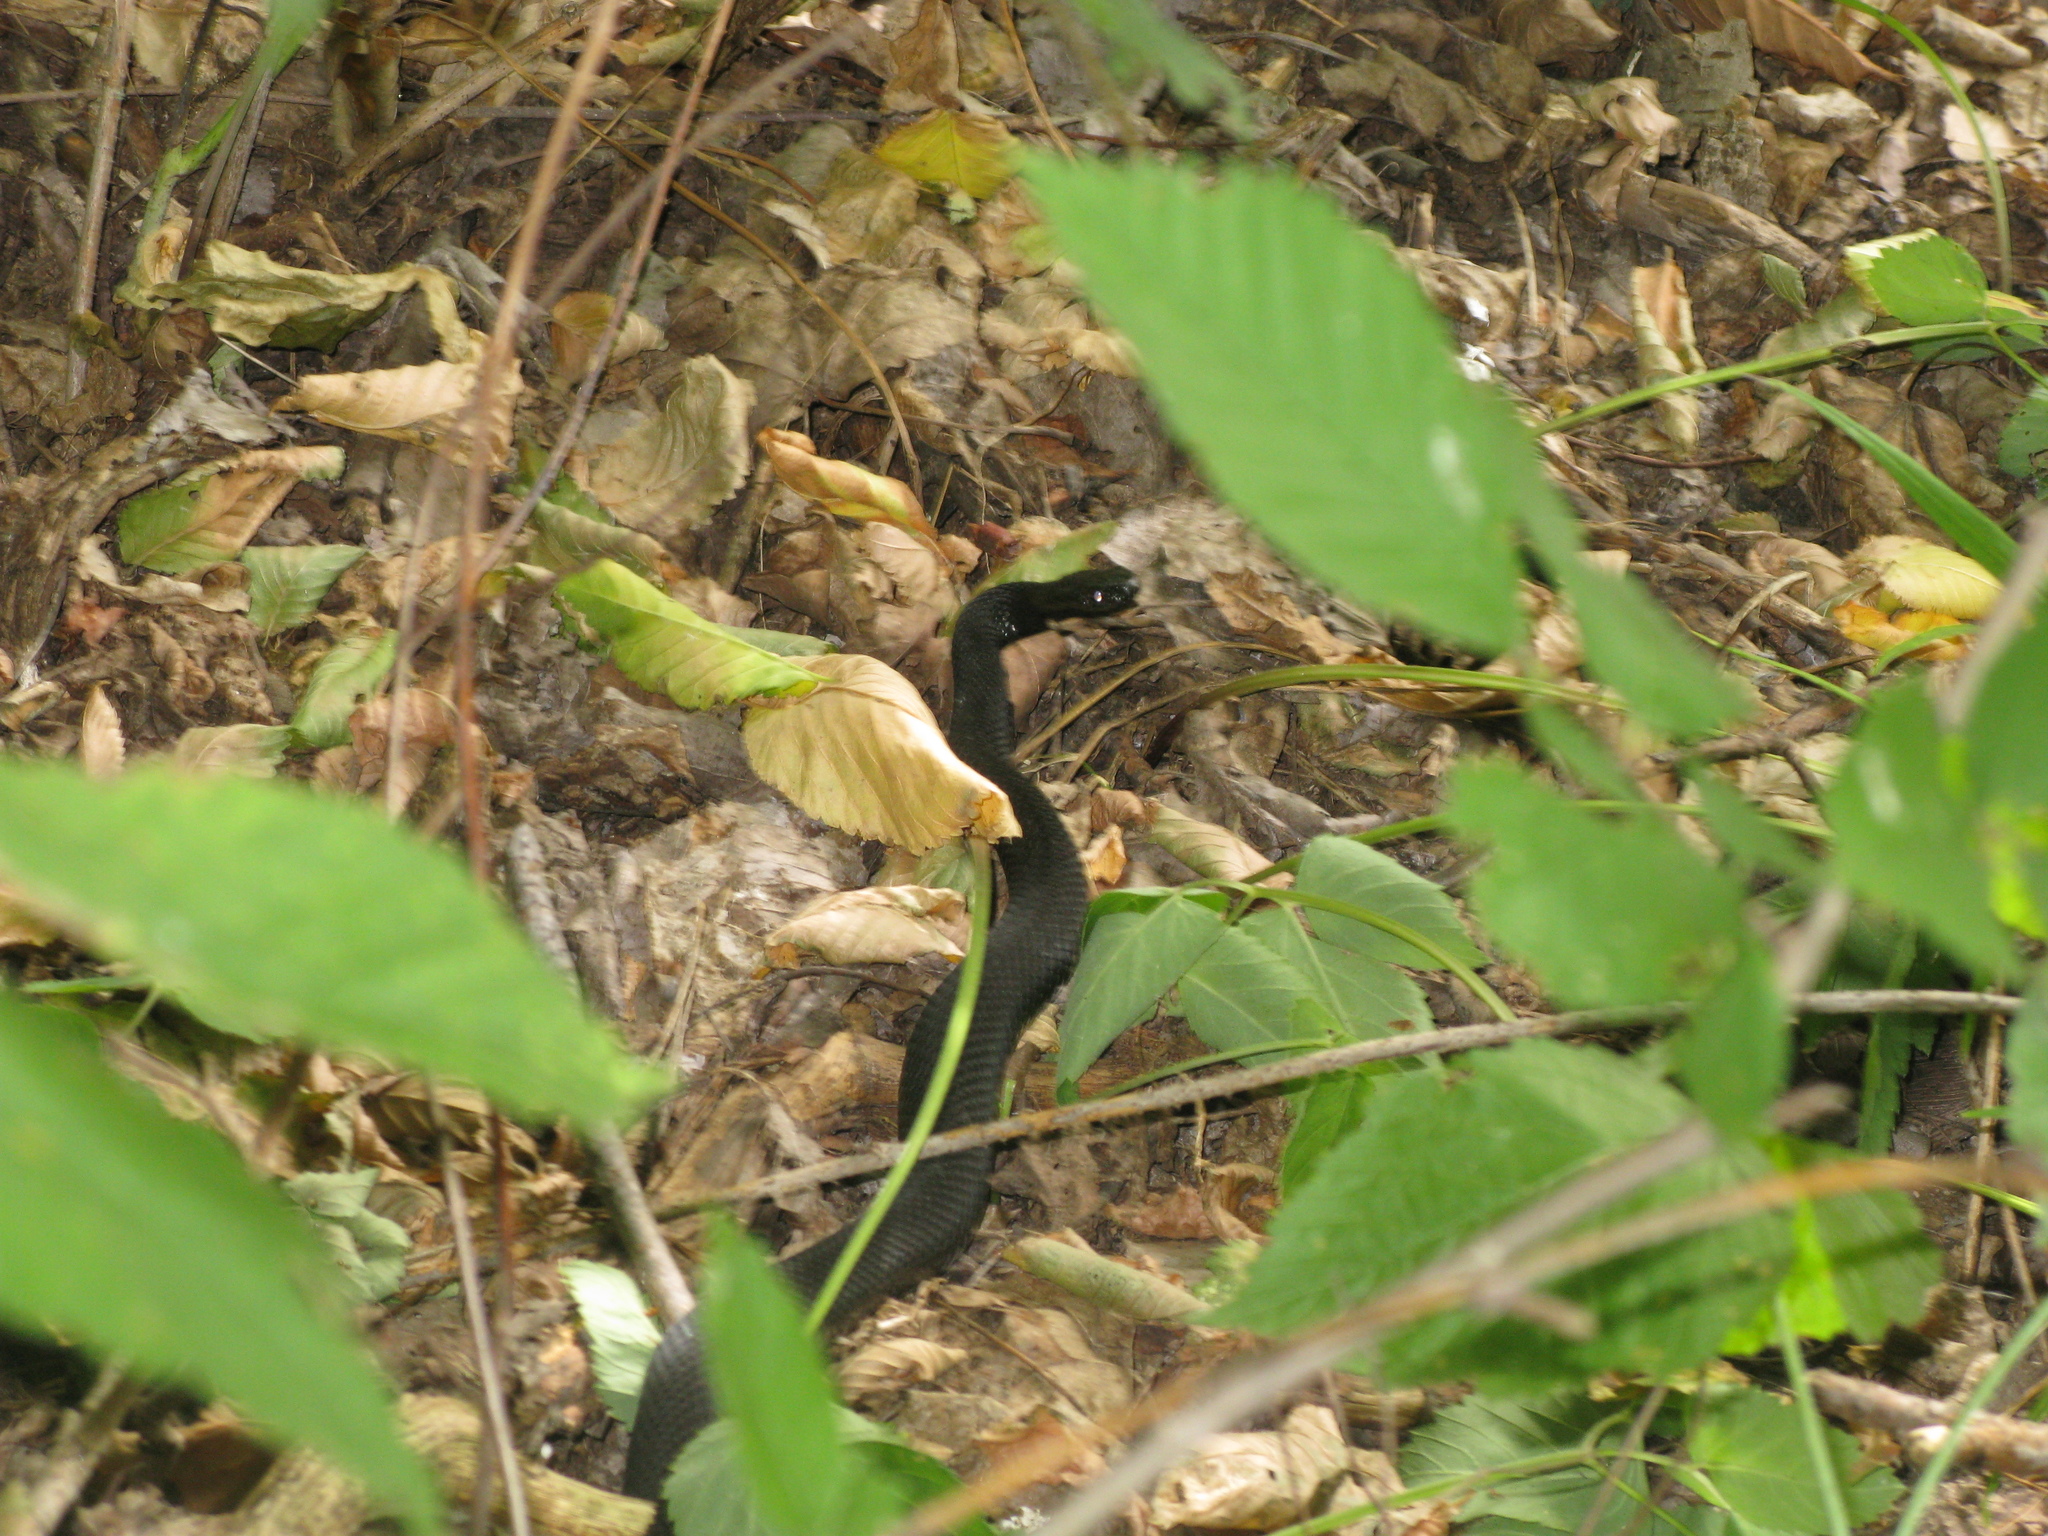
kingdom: Animalia
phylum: Chordata
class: Squamata
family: Viperidae
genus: Vipera
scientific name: Vipera nikolskii
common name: Adder
